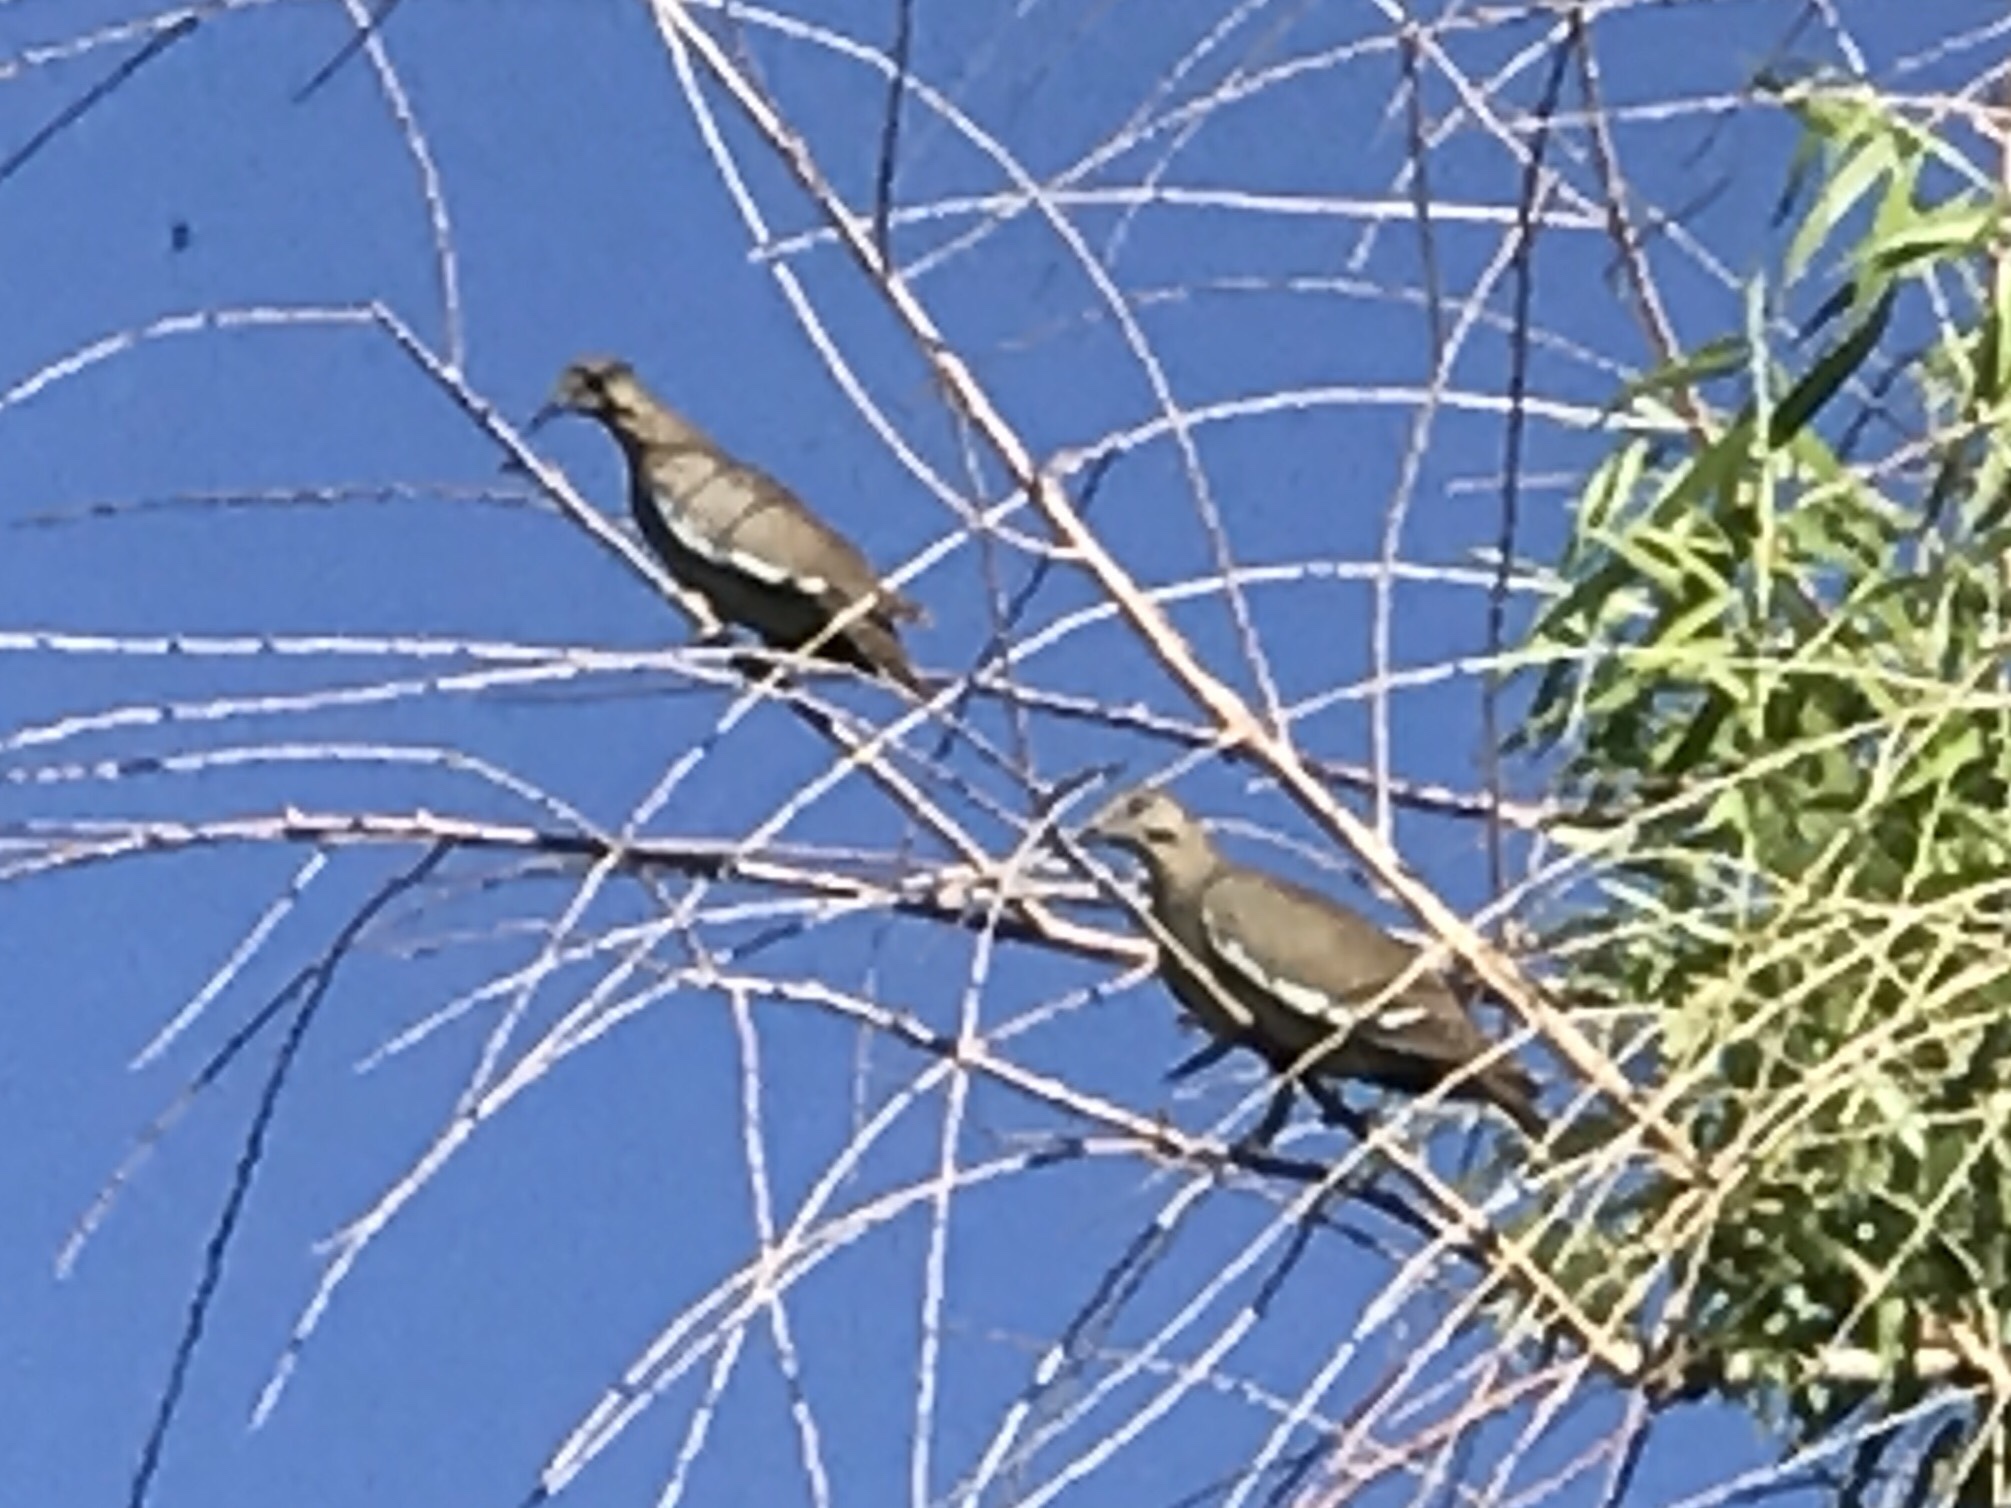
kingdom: Animalia
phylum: Chordata
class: Aves
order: Columbiformes
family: Columbidae
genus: Zenaida
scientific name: Zenaida asiatica
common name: White-winged dove
